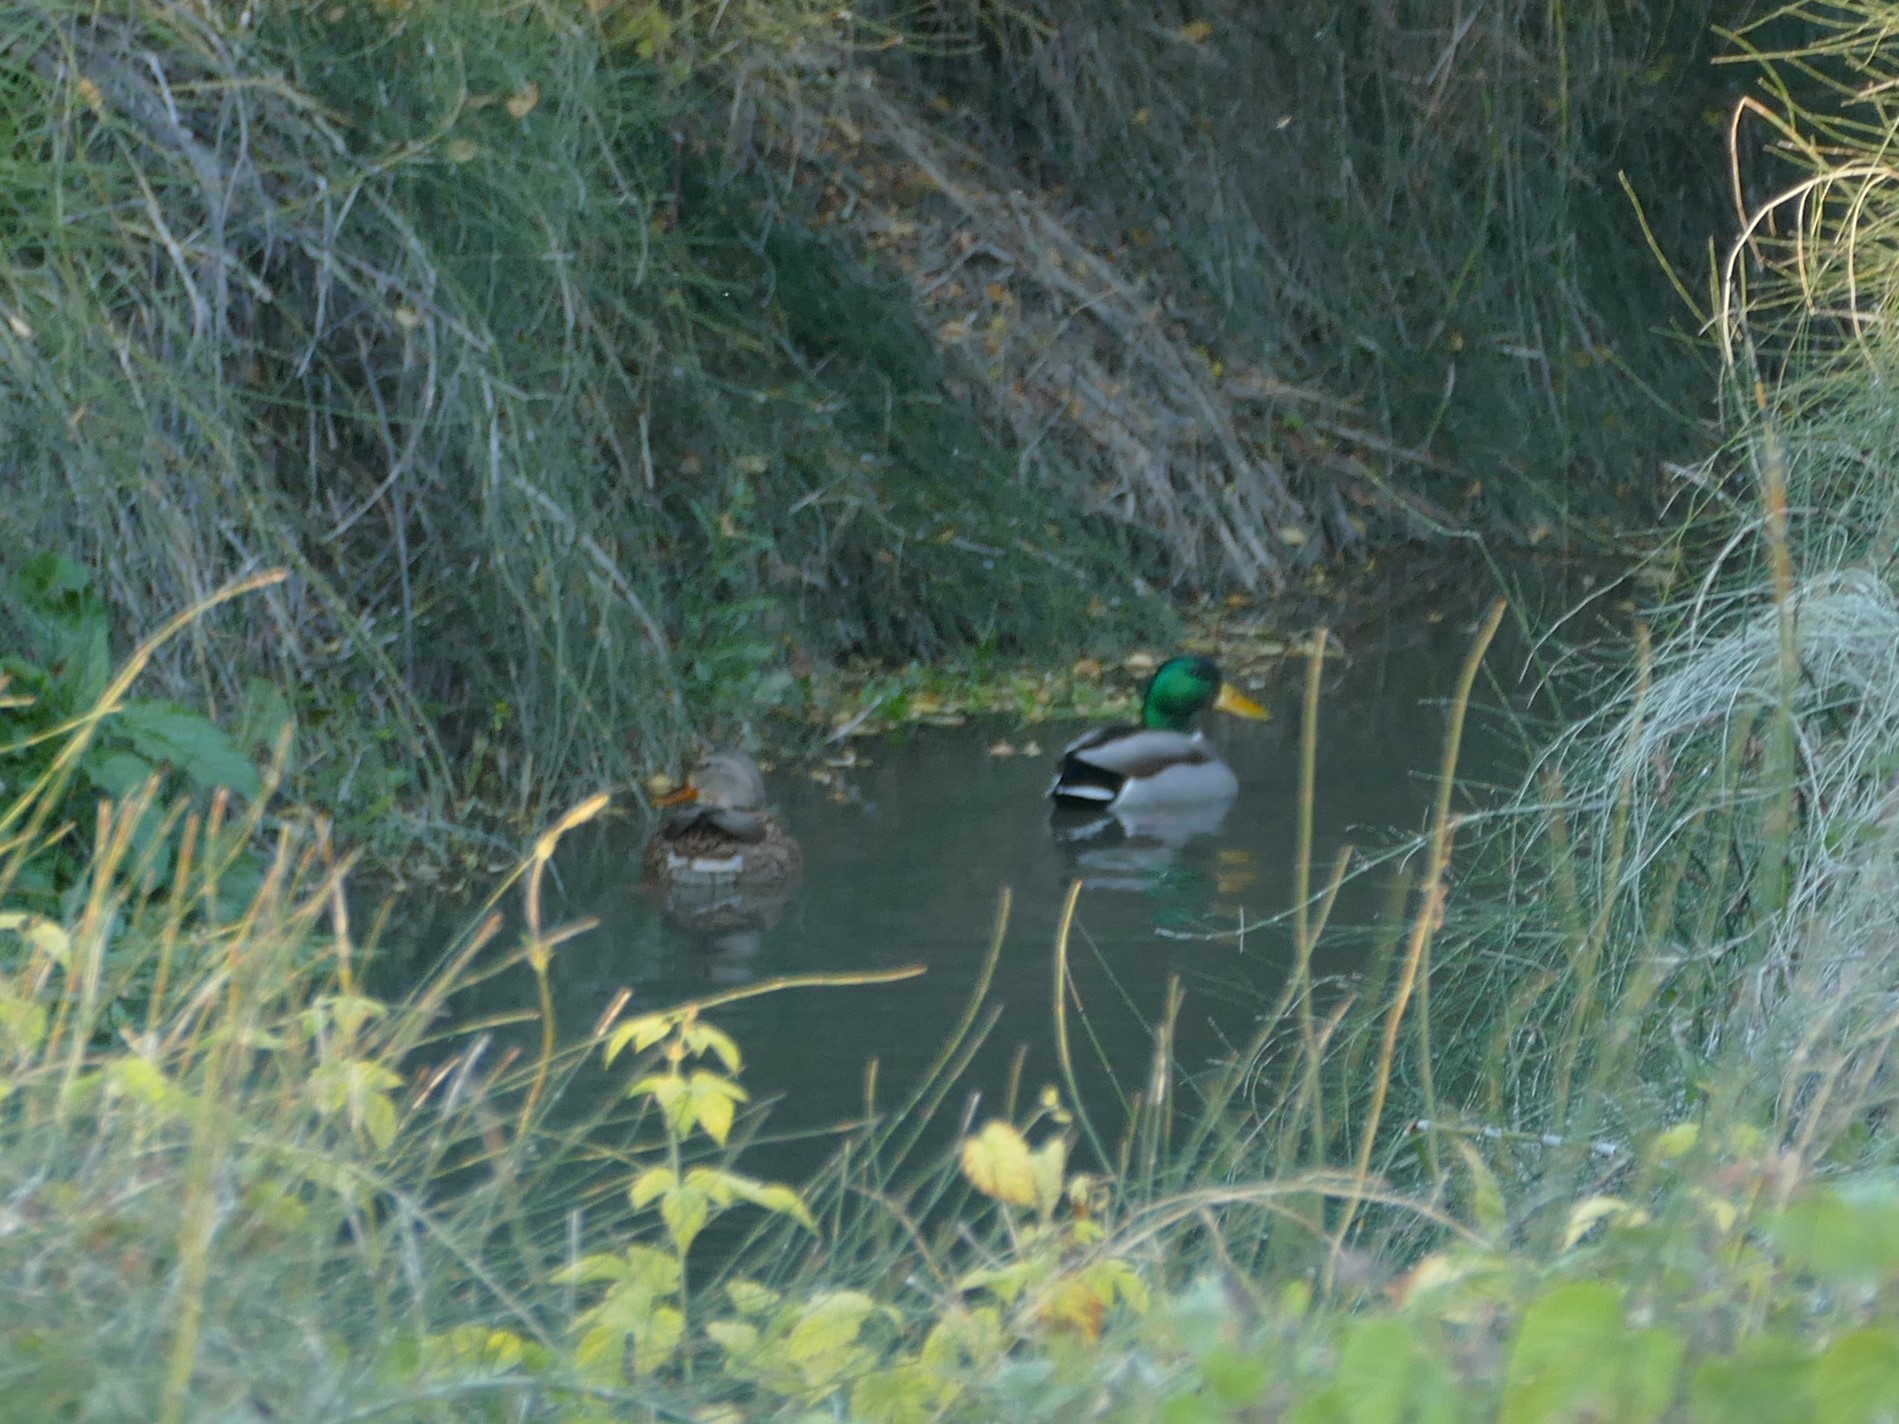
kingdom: Animalia
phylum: Chordata
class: Aves
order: Anseriformes
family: Anatidae
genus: Anas
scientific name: Anas platyrhynchos
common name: Mallard
